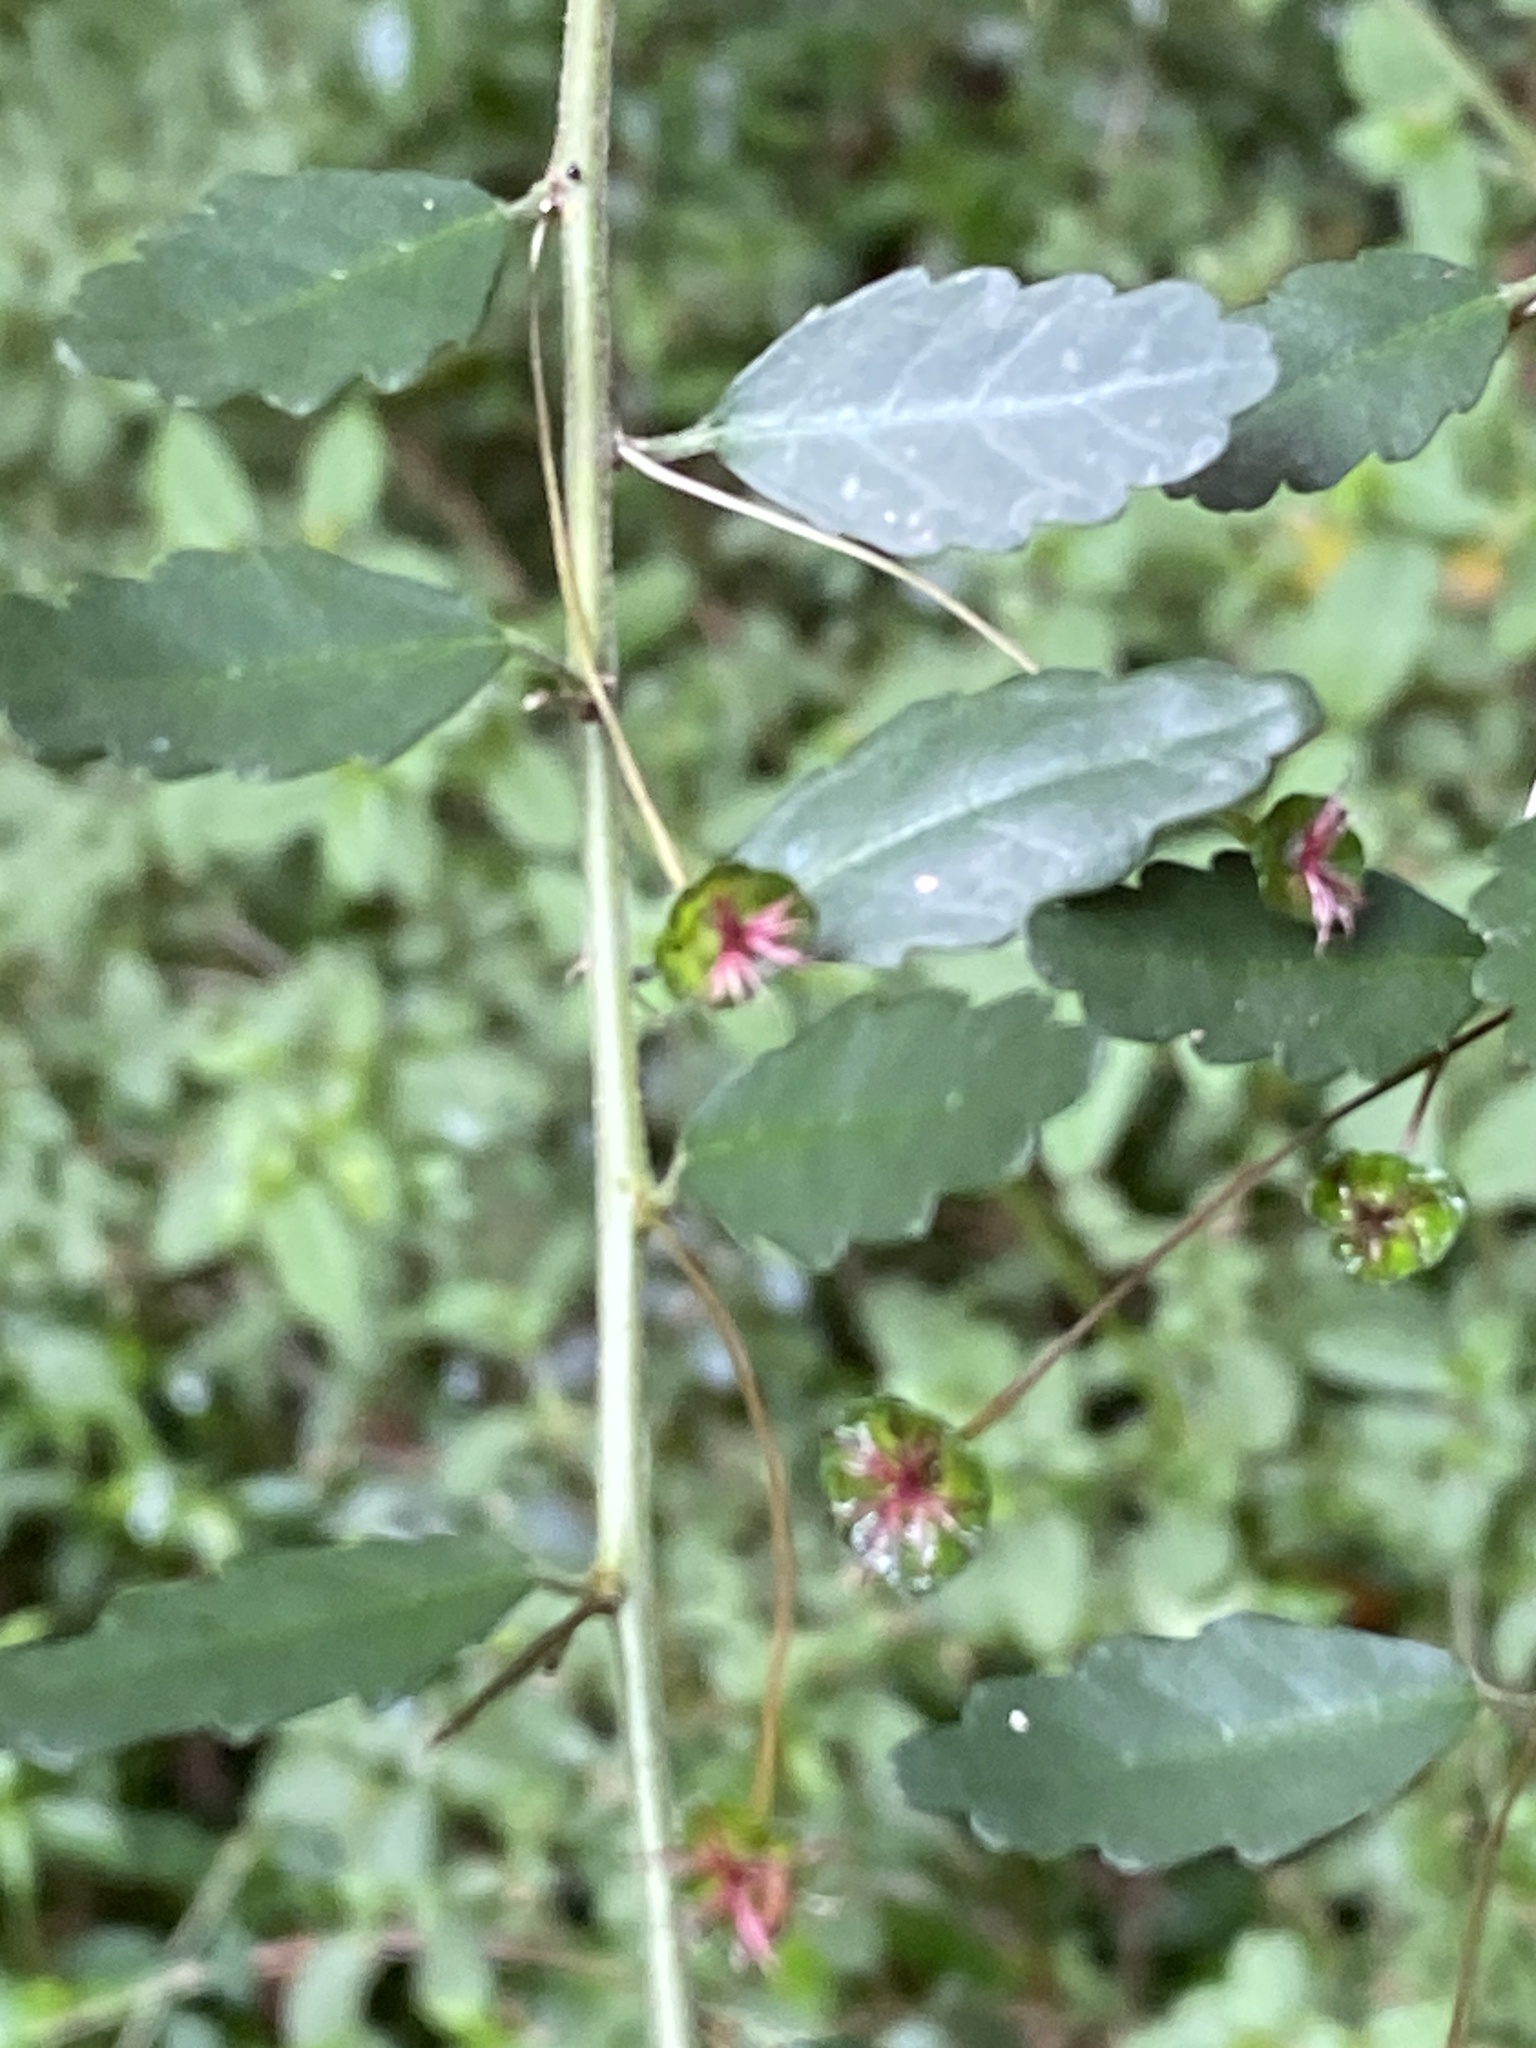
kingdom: Plantae
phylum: Tracheophyta
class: Magnoliopsida
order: Malpighiales
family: Euphorbiaceae
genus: Acalypha
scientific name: Acalypha capillipes
